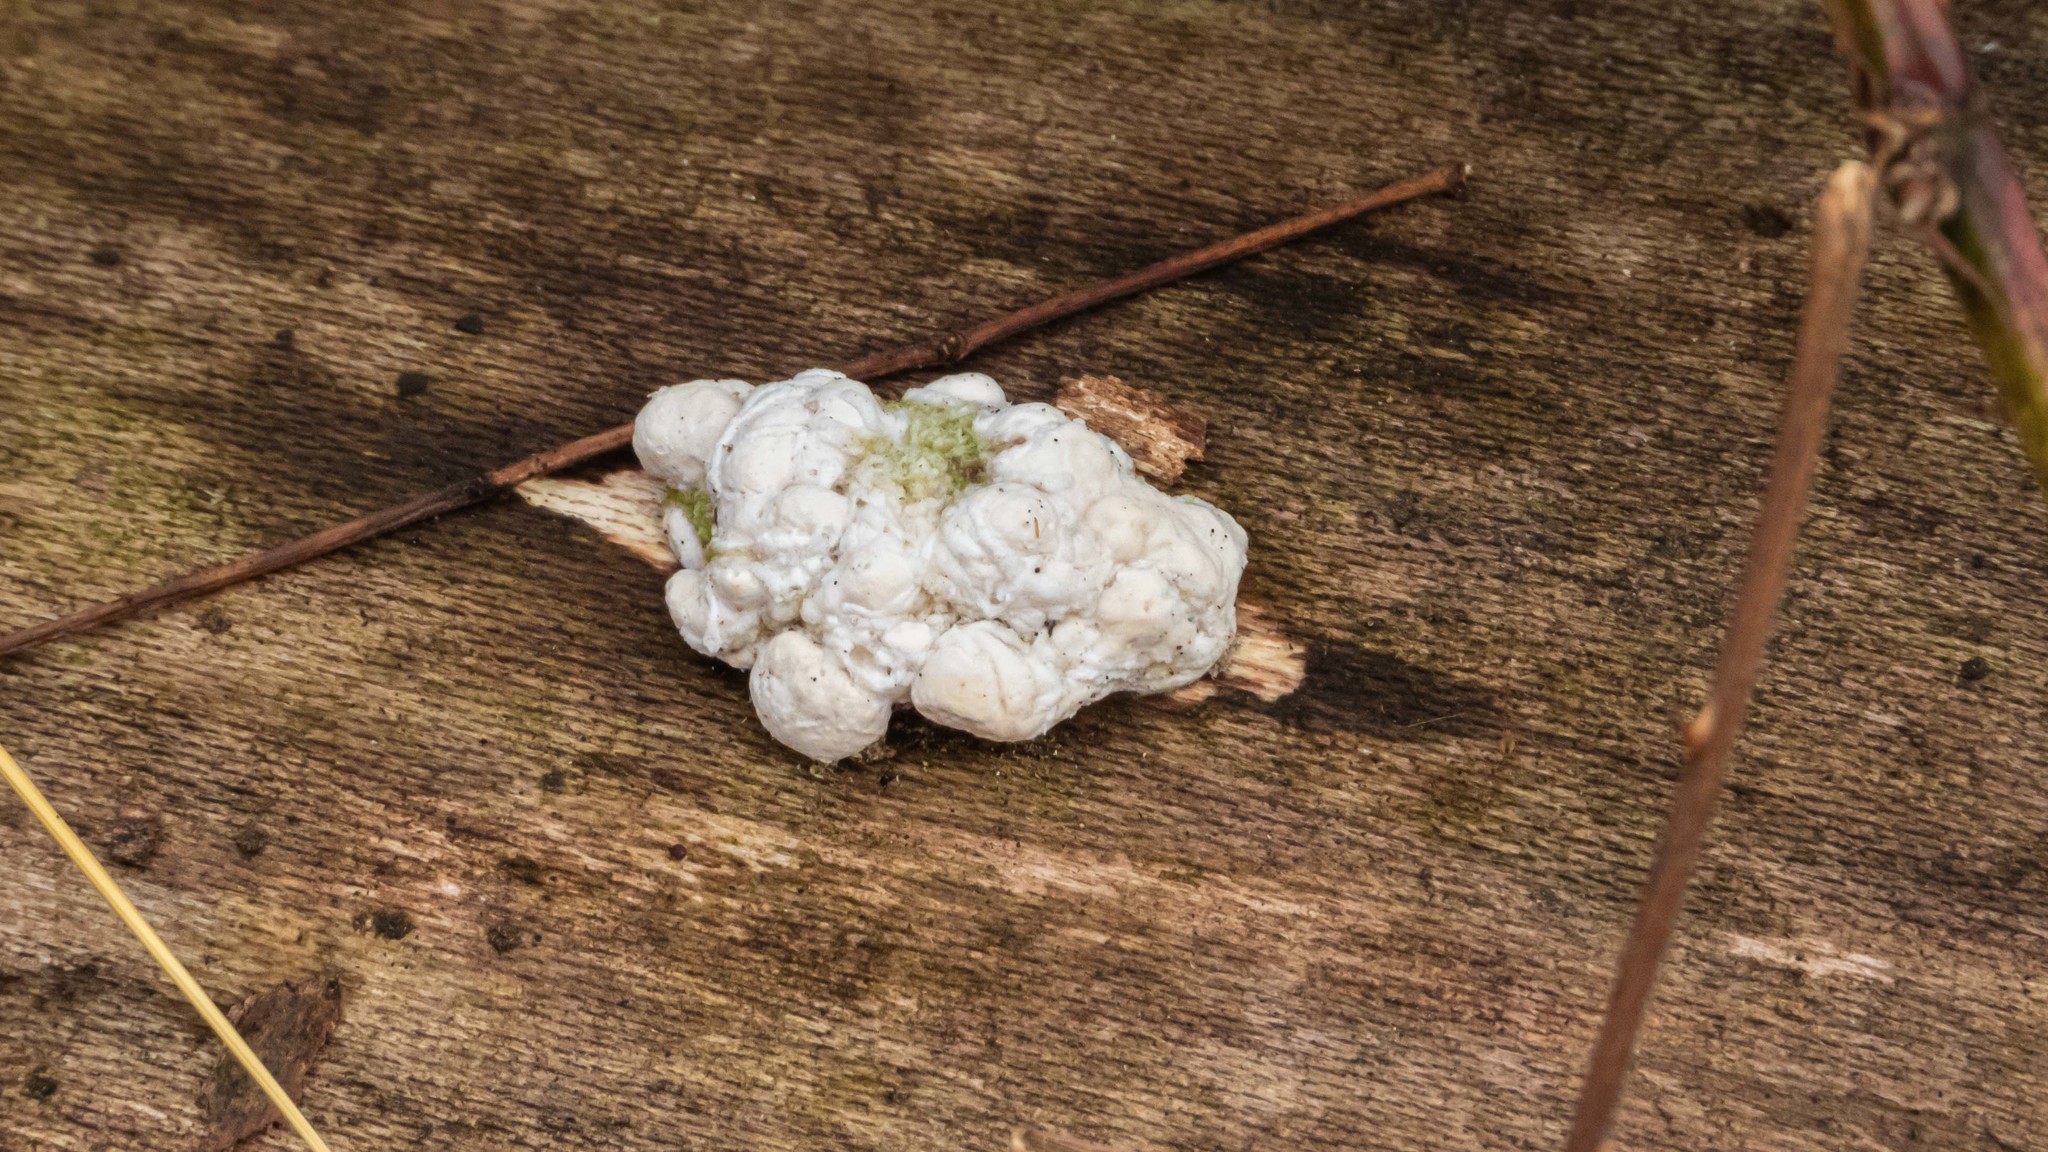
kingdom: Fungi
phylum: Basidiomycota
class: Agaricomycetes
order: Agaricales
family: Entolomataceae
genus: Entoloma
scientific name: Entoloma abortivum
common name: Aborted entoloma
